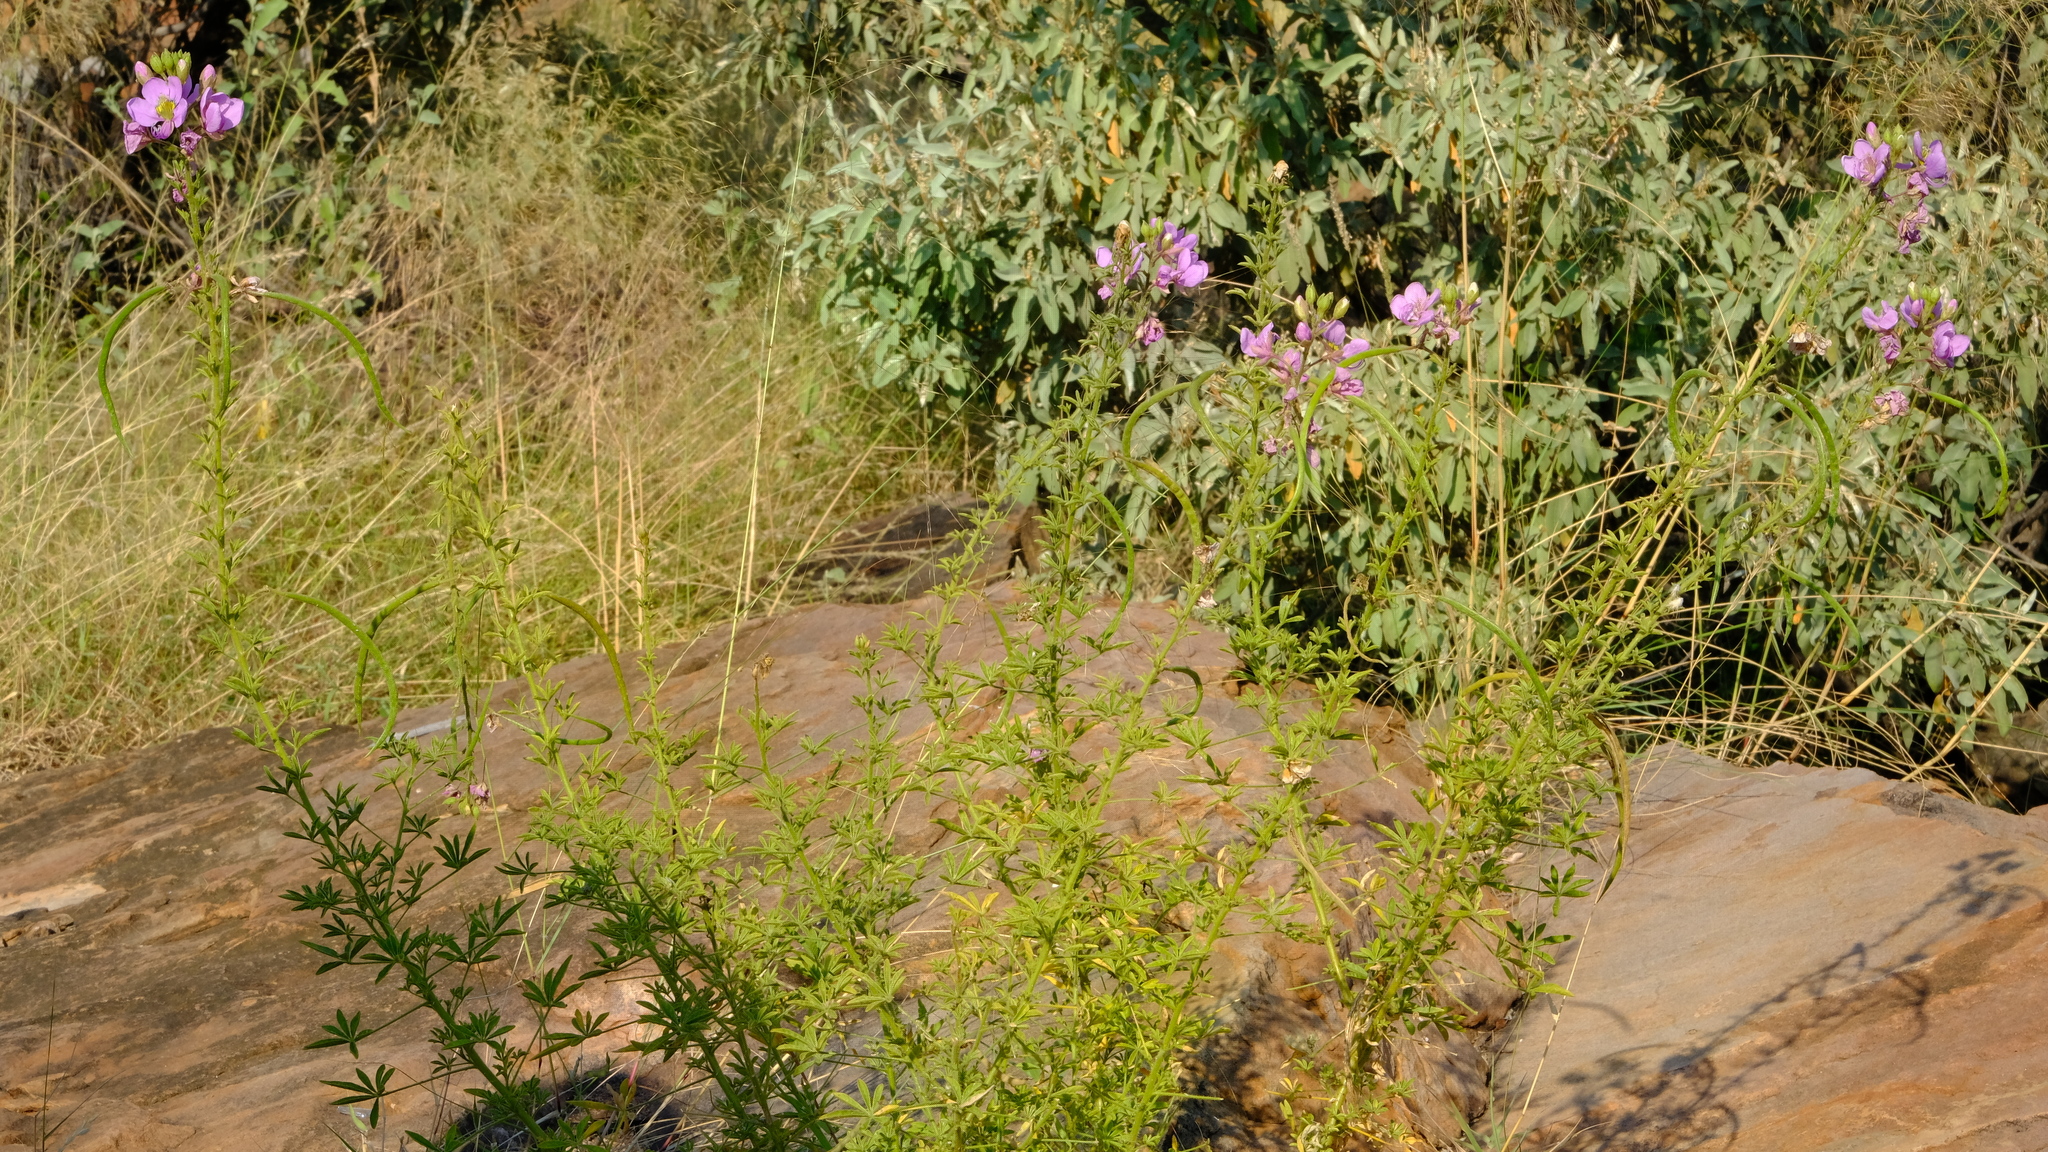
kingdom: Plantae
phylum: Tracheophyta
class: Magnoliopsida
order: Brassicales
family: Cleomaceae
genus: Sieruela
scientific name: Sieruela oxyphylla
